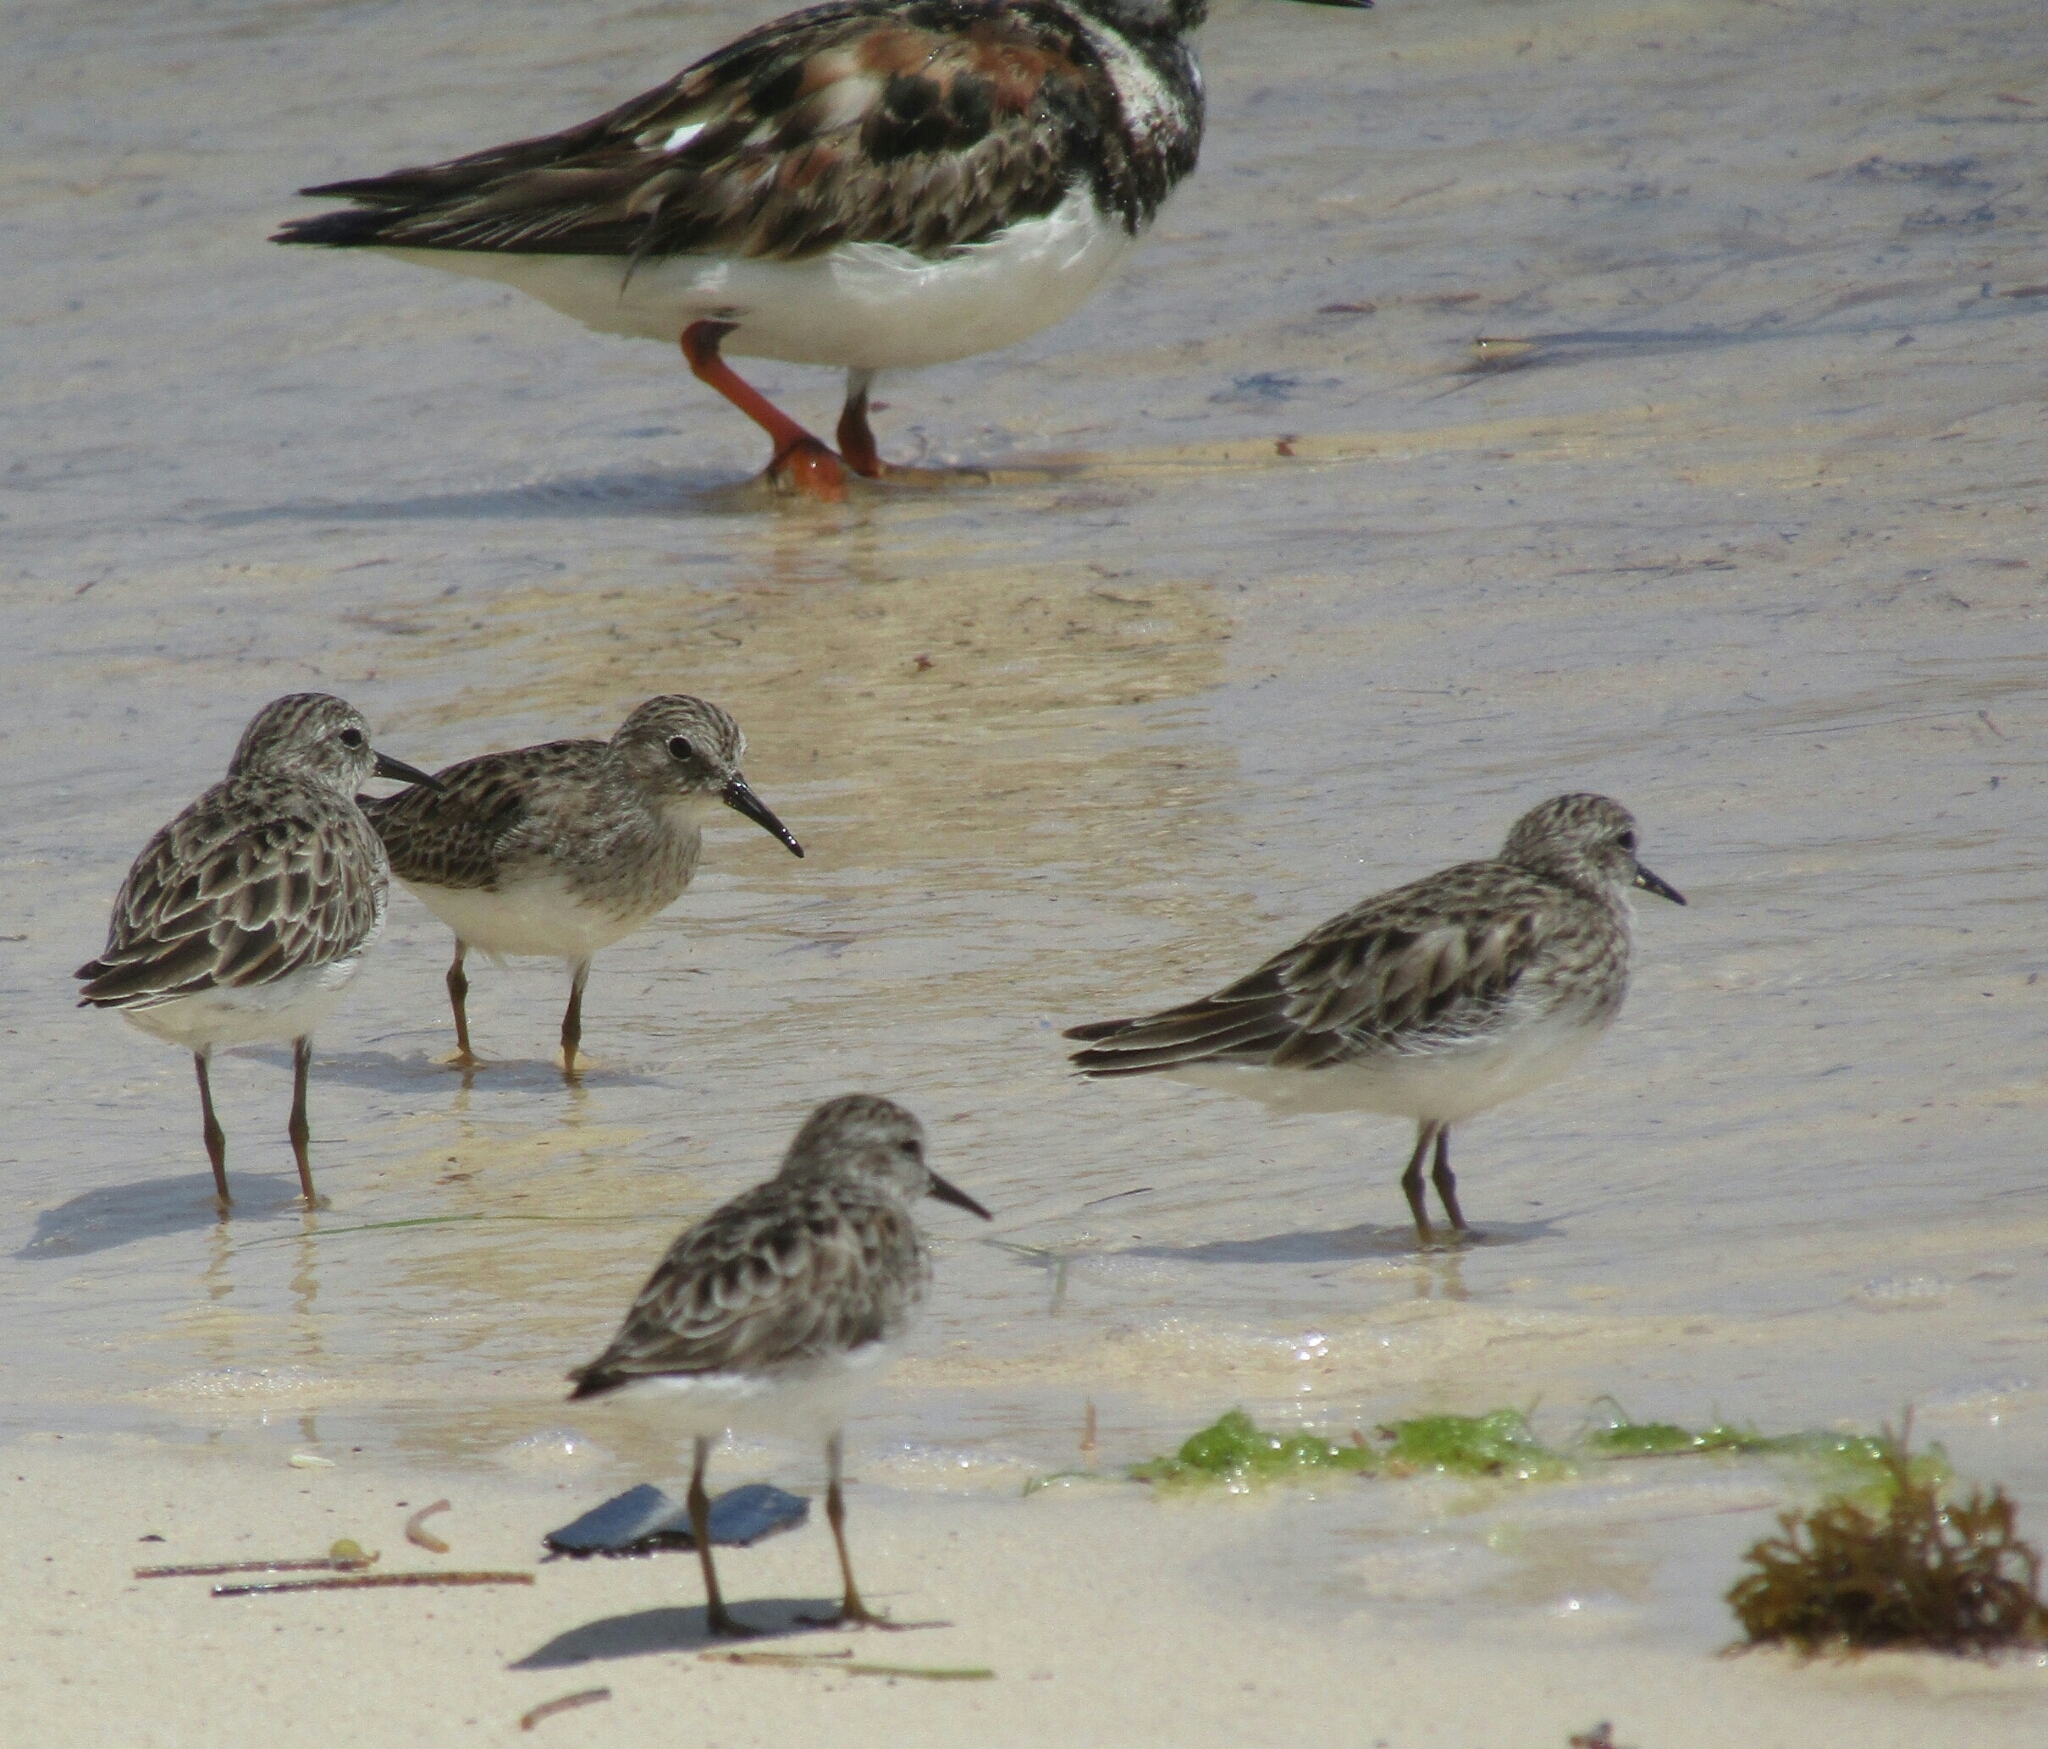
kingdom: Animalia
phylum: Chordata
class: Aves
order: Charadriiformes
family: Scolopacidae
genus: Calidris
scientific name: Calidris minutilla
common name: Least sandpiper
